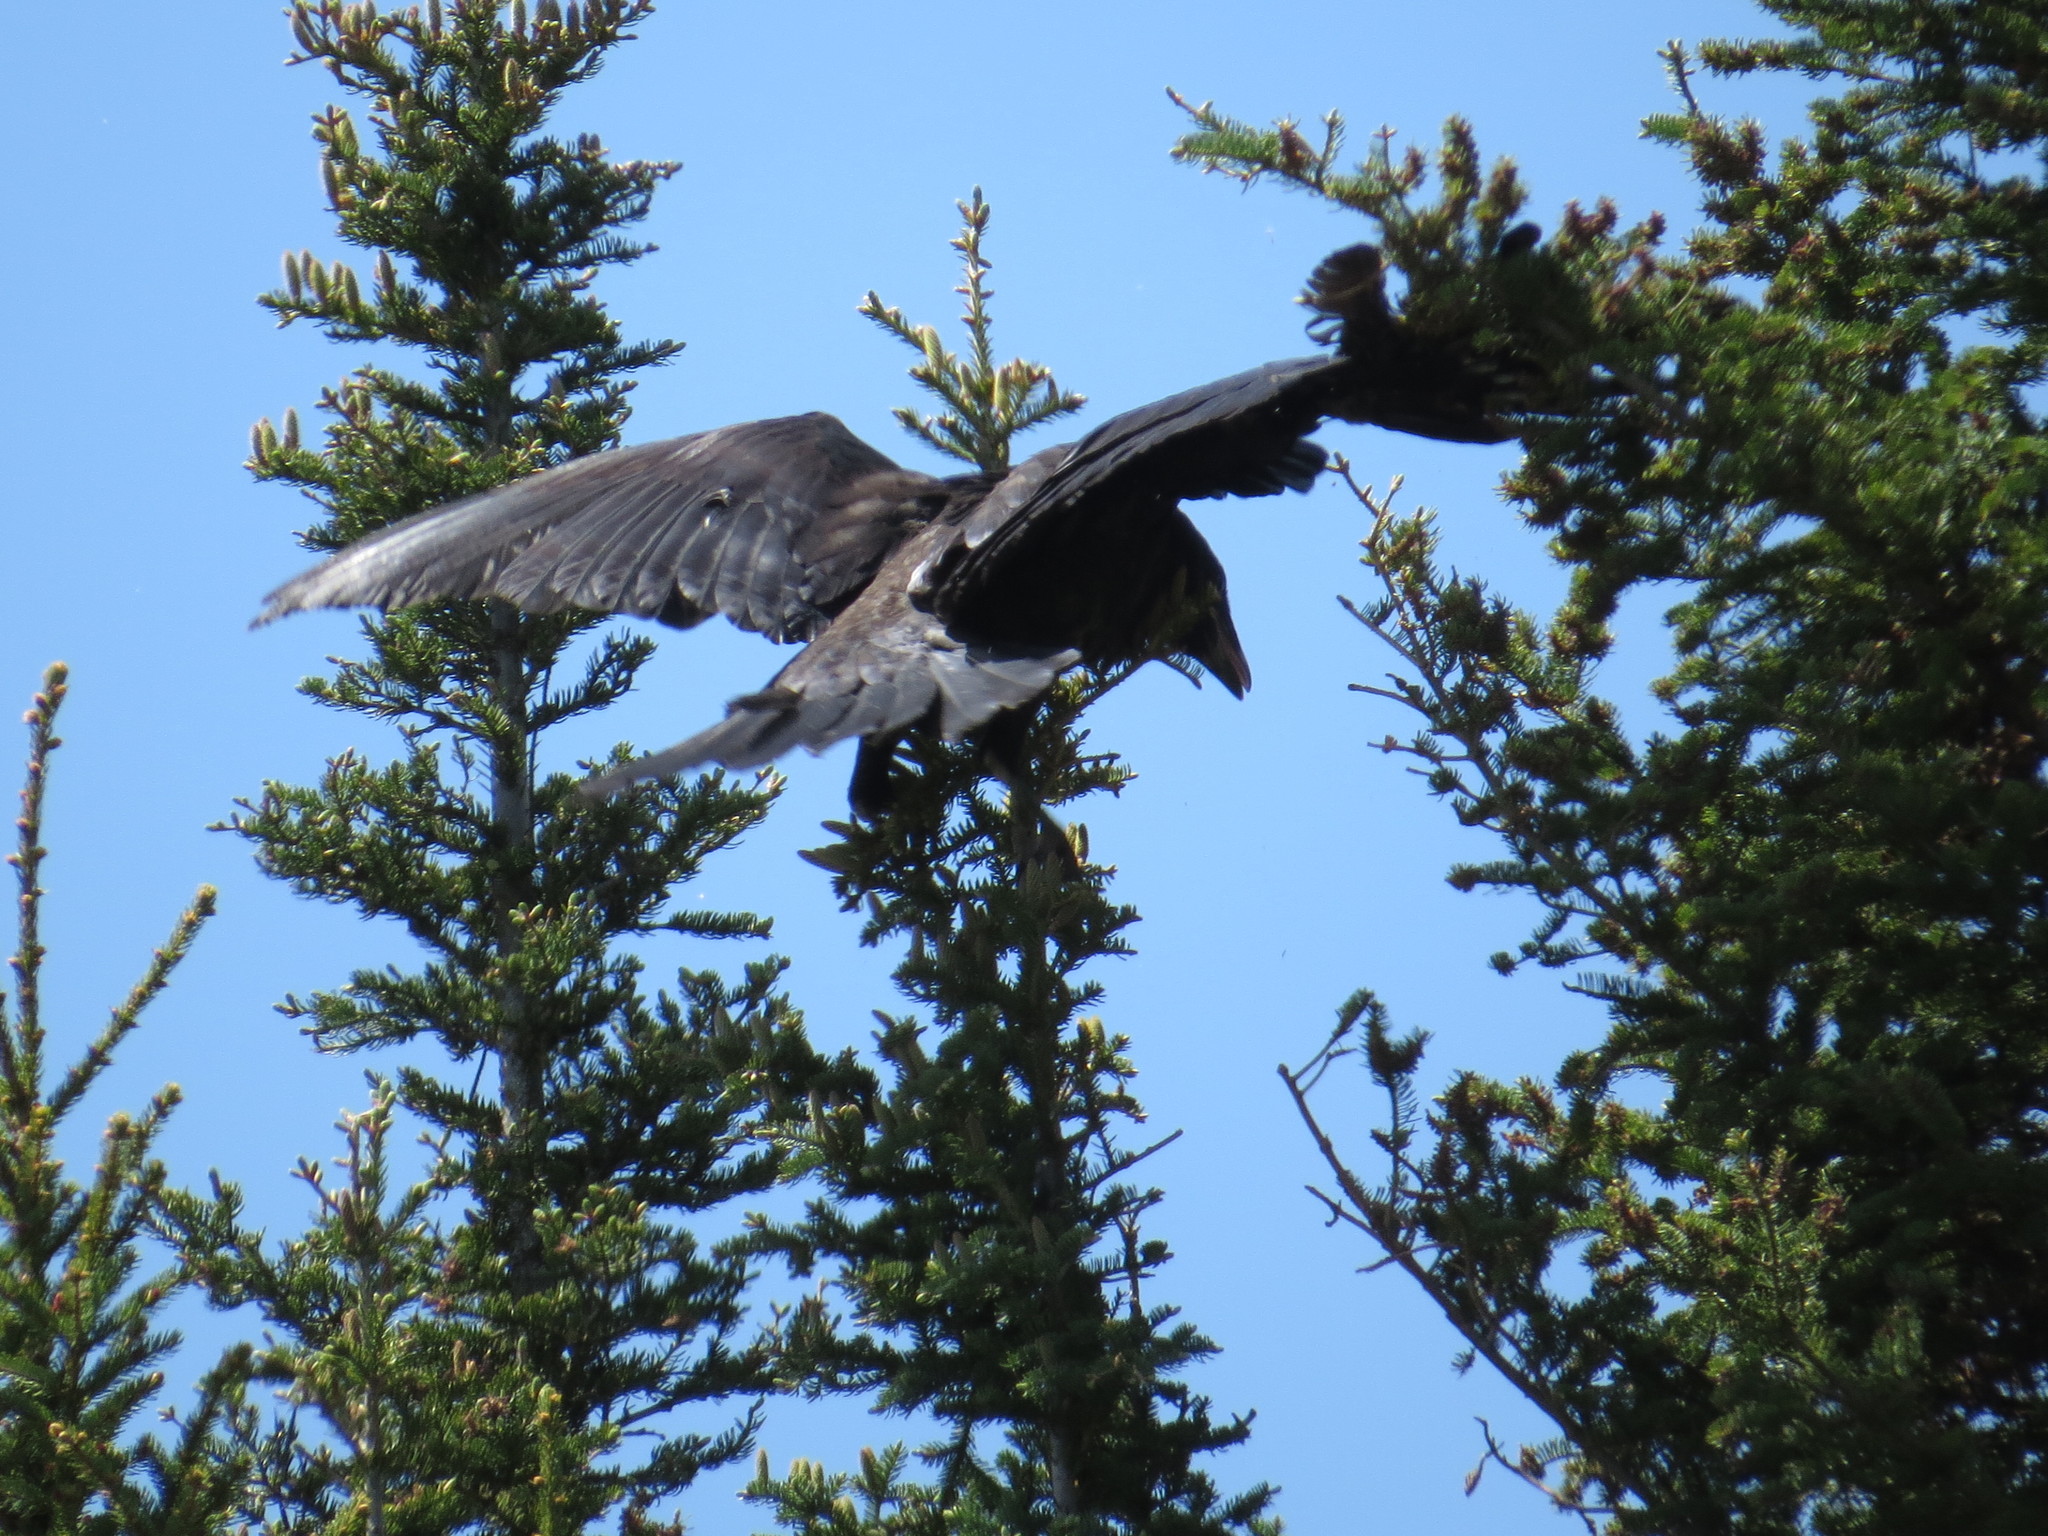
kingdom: Animalia
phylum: Chordata
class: Aves
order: Passeriformes
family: Corvidae
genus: Corvus
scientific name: Corvus corax
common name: Common raven
